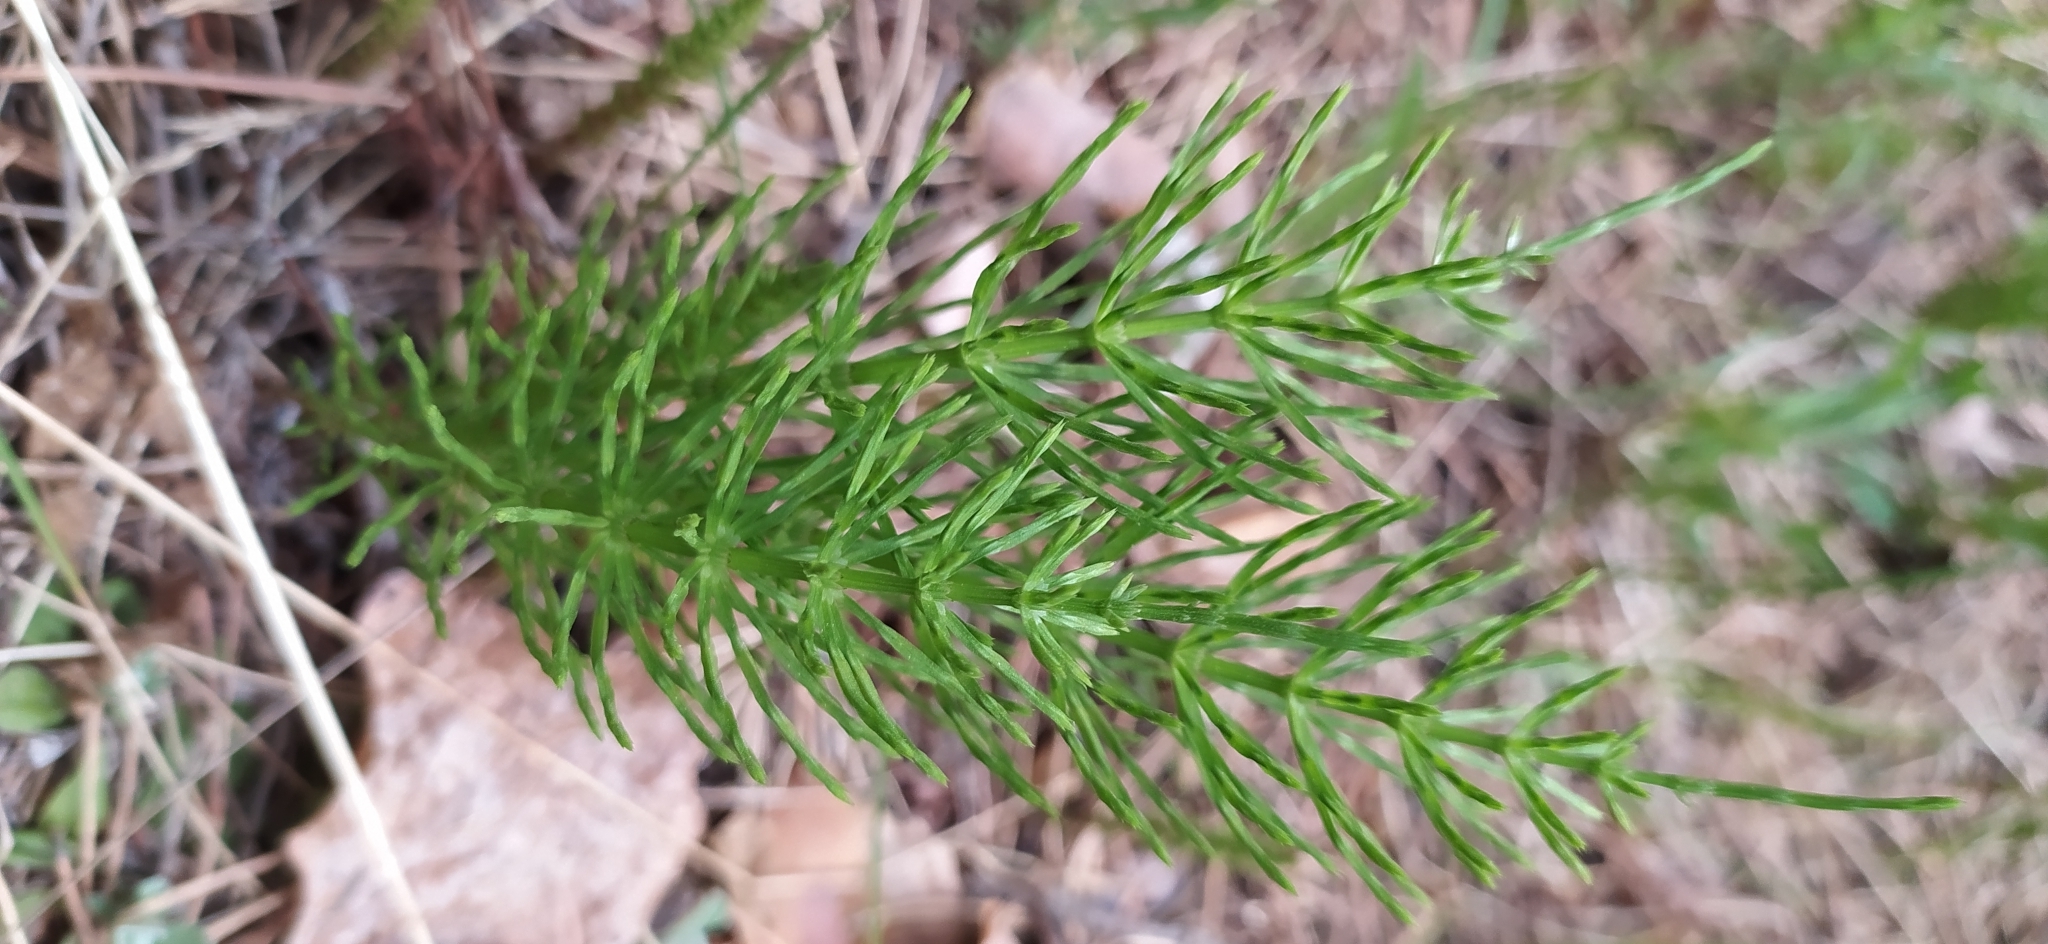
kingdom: Plantae
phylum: Tracheophyta
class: Polypodiopsida
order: Equisetales
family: Equisetaceae
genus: Equisetum
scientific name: Equisetum arvense
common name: Field horsetail
